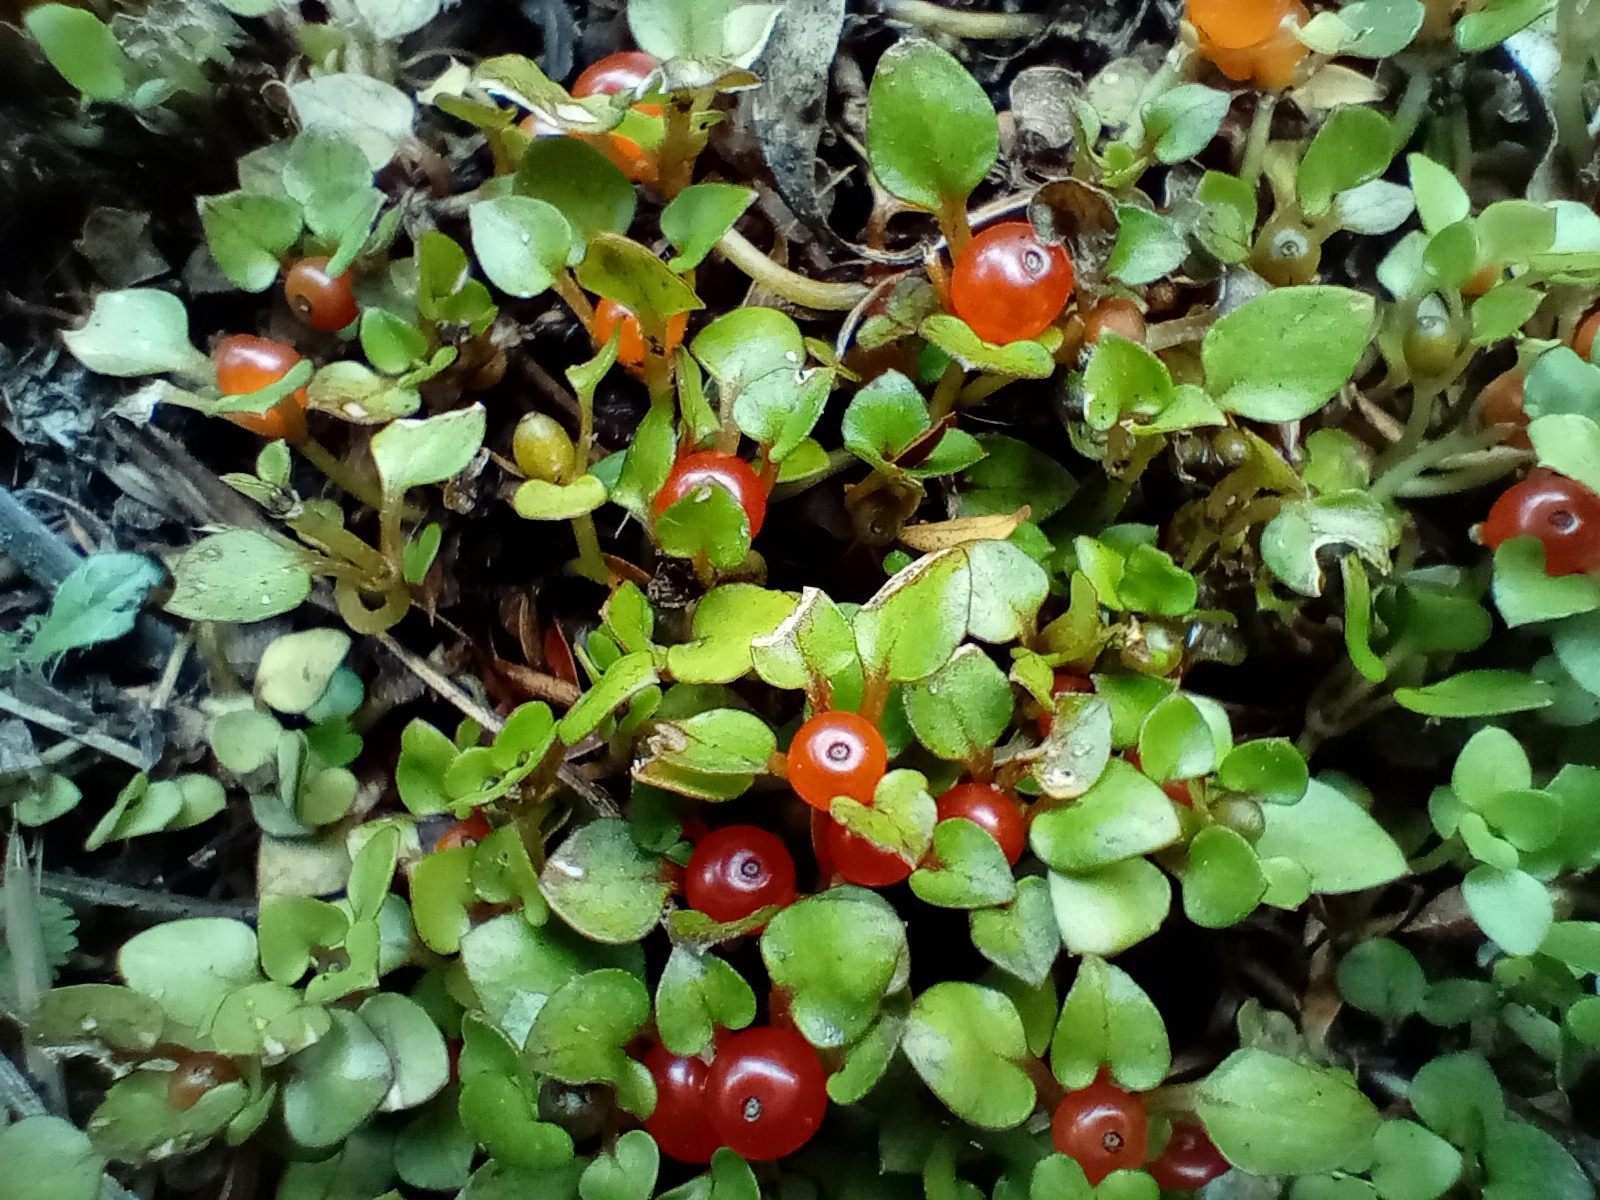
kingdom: Plantae
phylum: Tracheophyta
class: Magnoliopsida
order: Gentianales
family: Rubiaceae
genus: Nertera
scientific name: Nertera granadensis
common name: Beadplant
